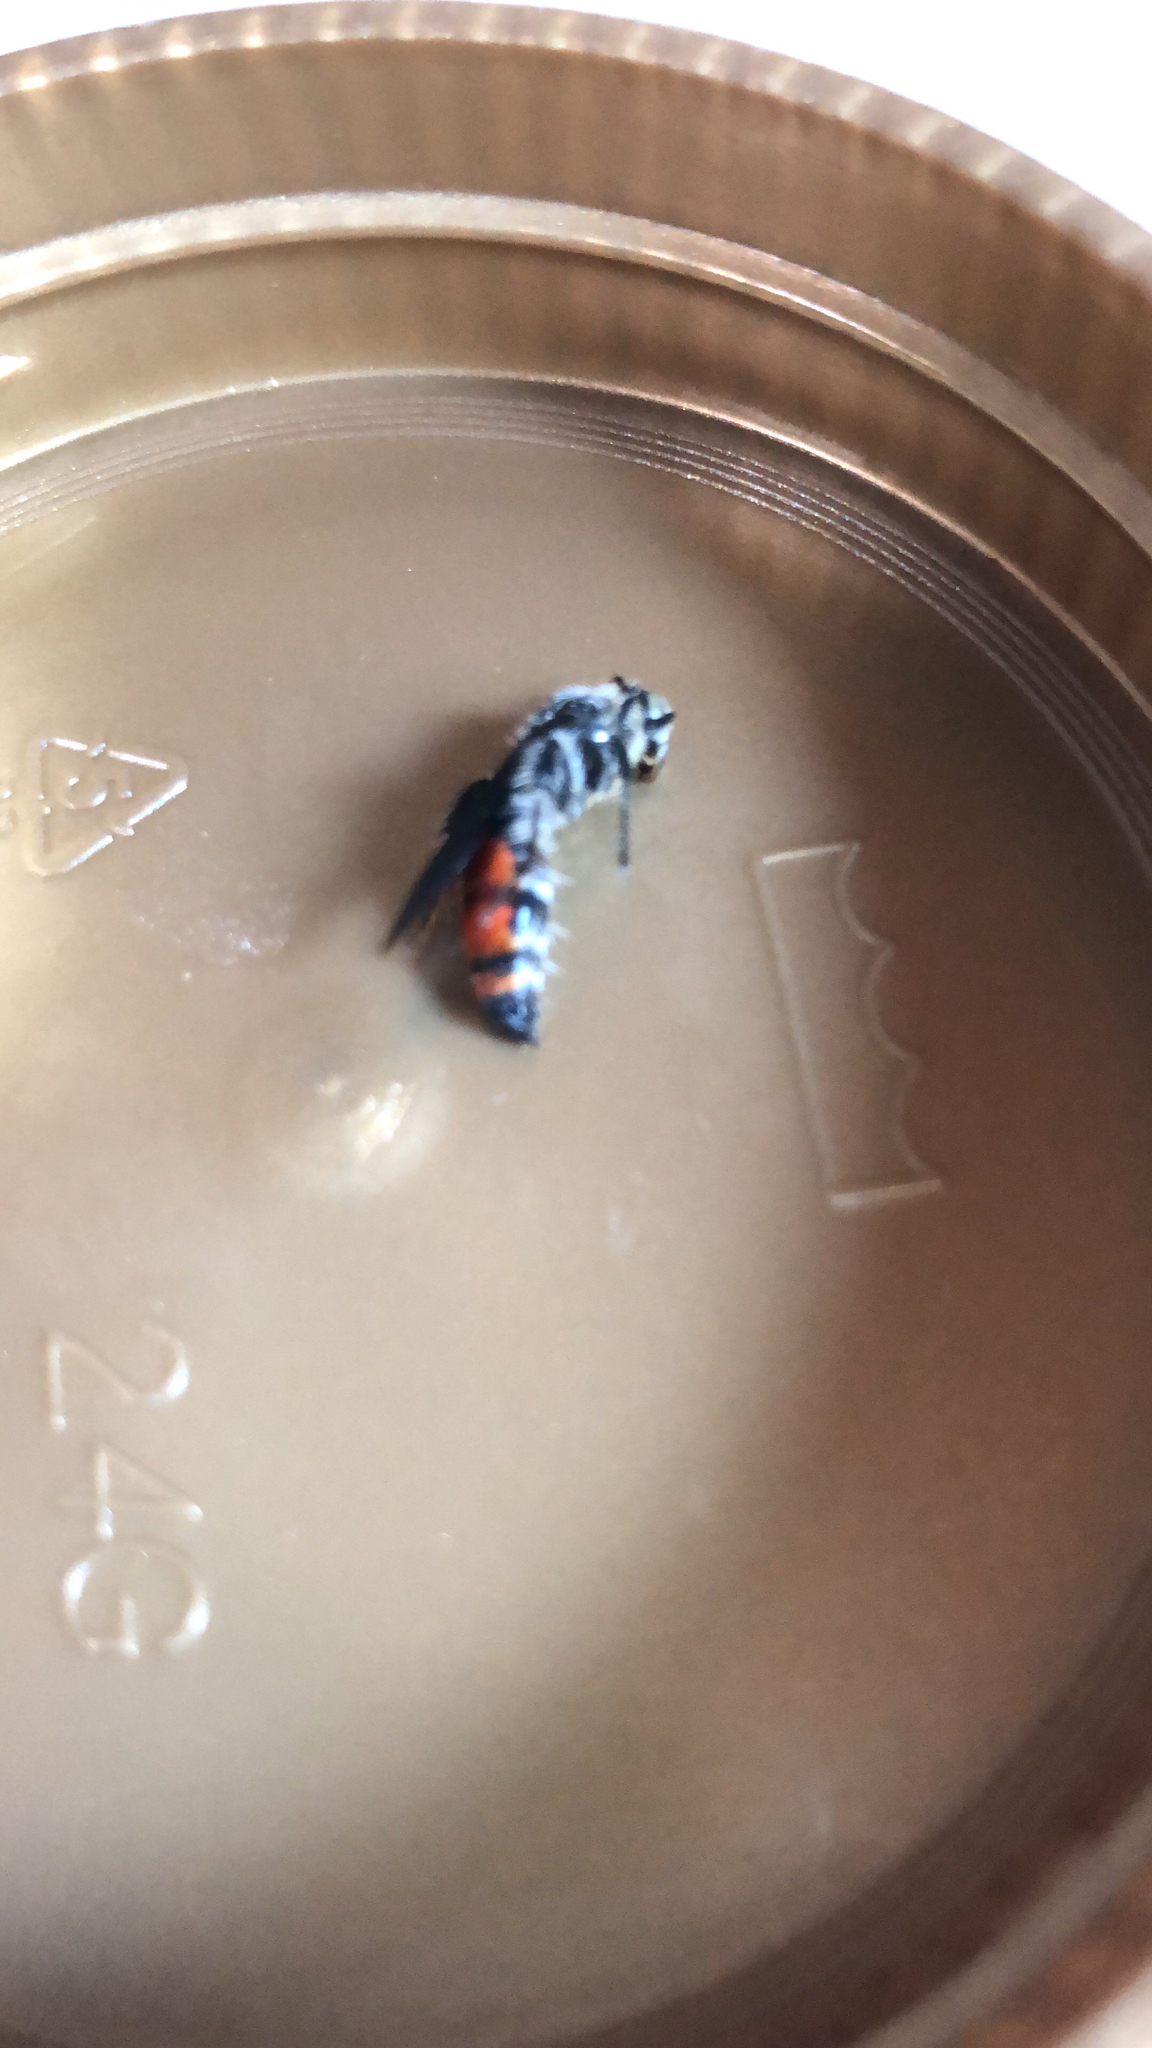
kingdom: Animalia
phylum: Arthropoda
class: Insecta
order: Hymenoptera
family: Scoliidae
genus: Dielis
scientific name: Dielis dorsata
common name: Scoliid wasp
